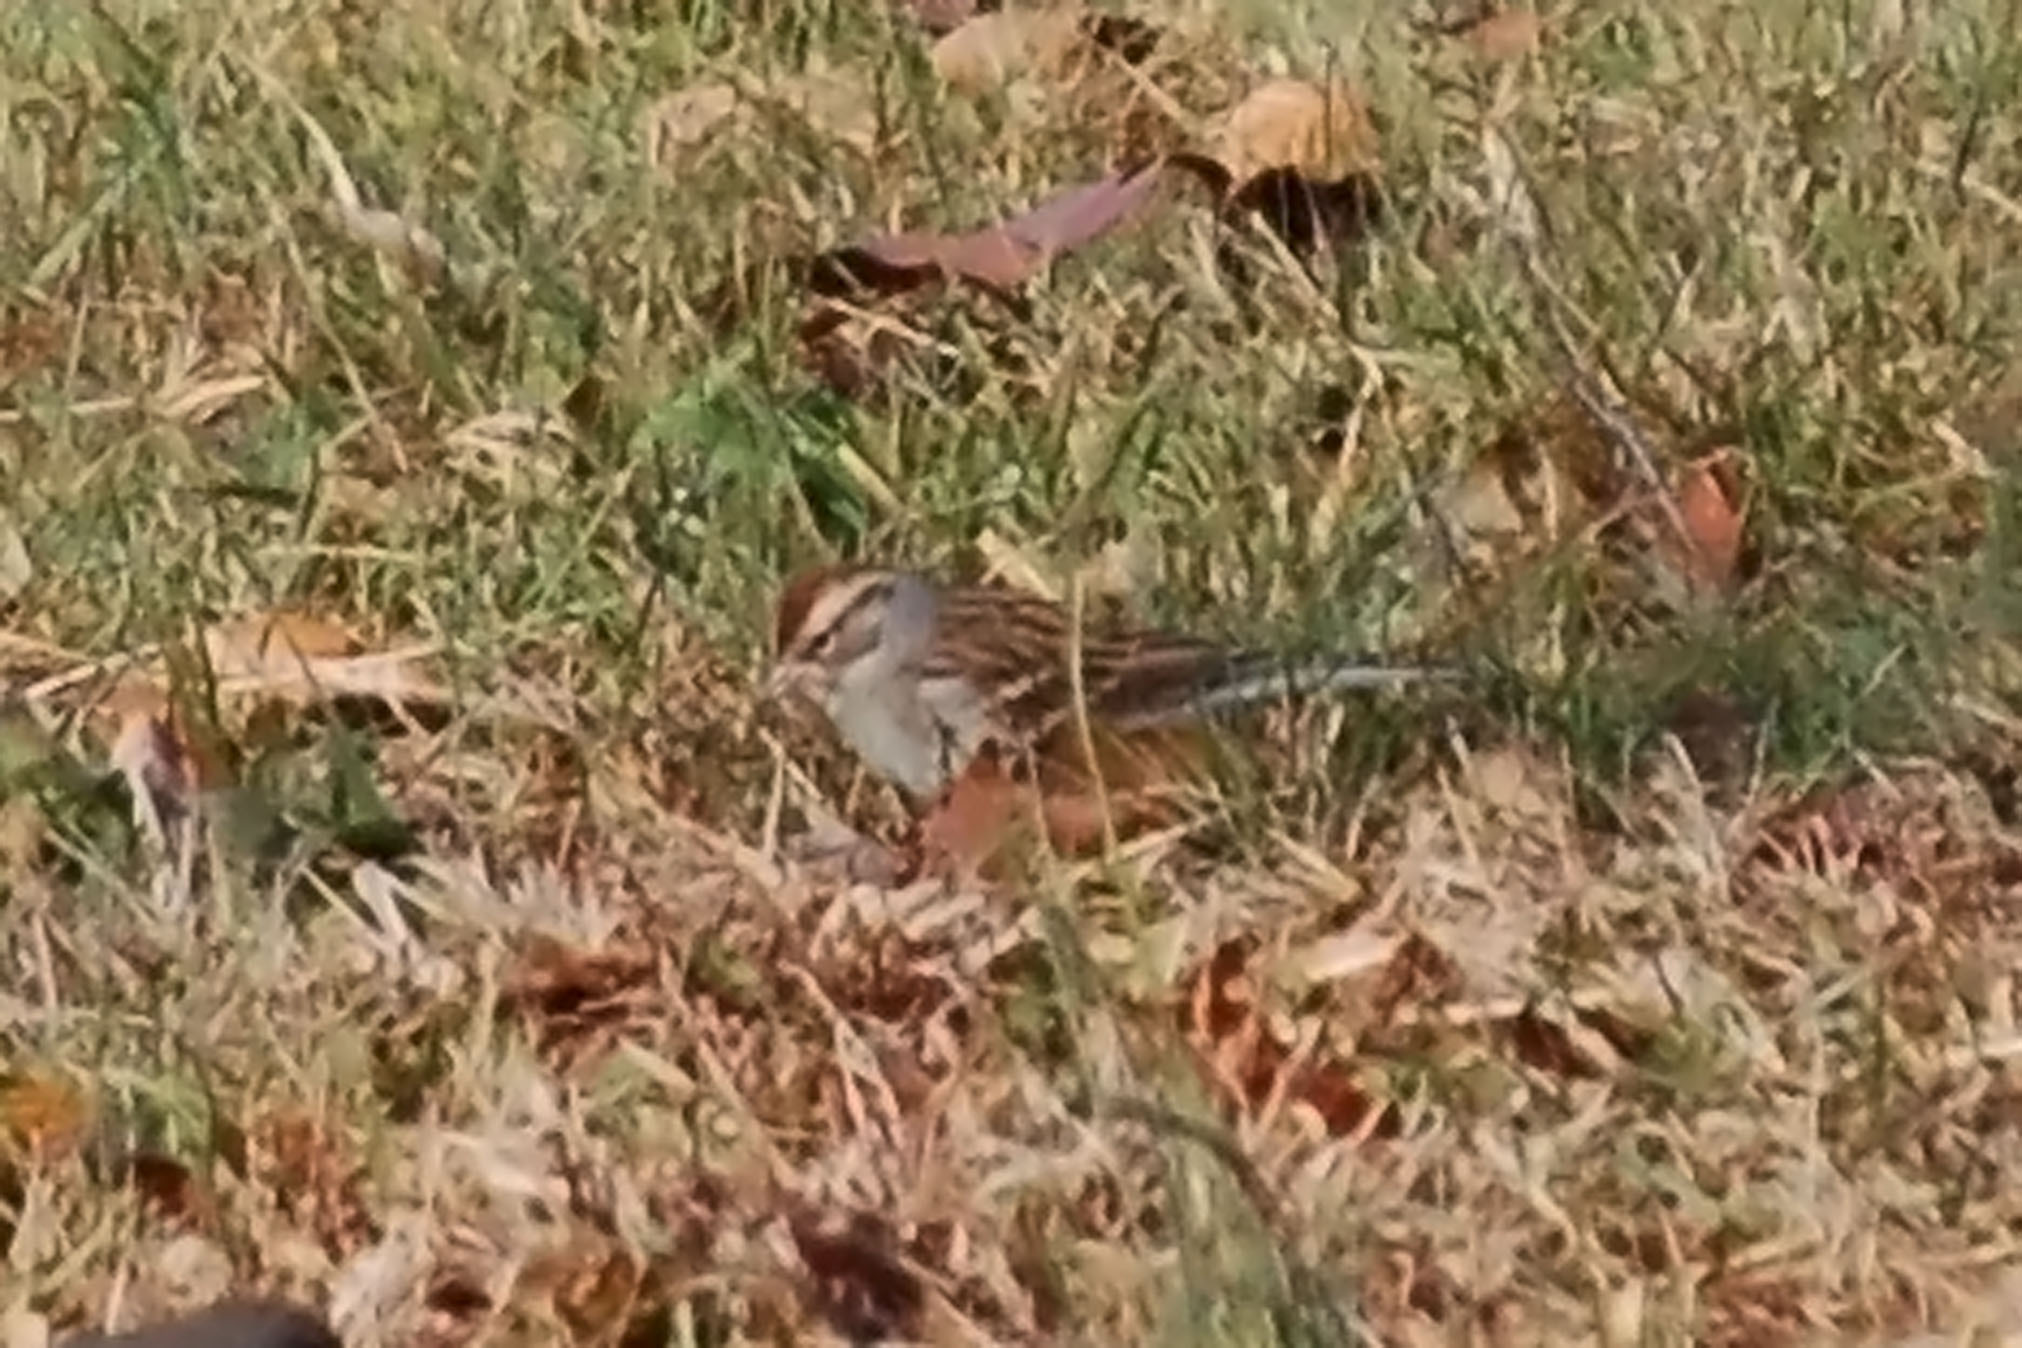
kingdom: Animalia
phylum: Chordata
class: Aves
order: Passeriformes
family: Passerellidae
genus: Spizella
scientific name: Spizella passerina
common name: Chipping sparrow
